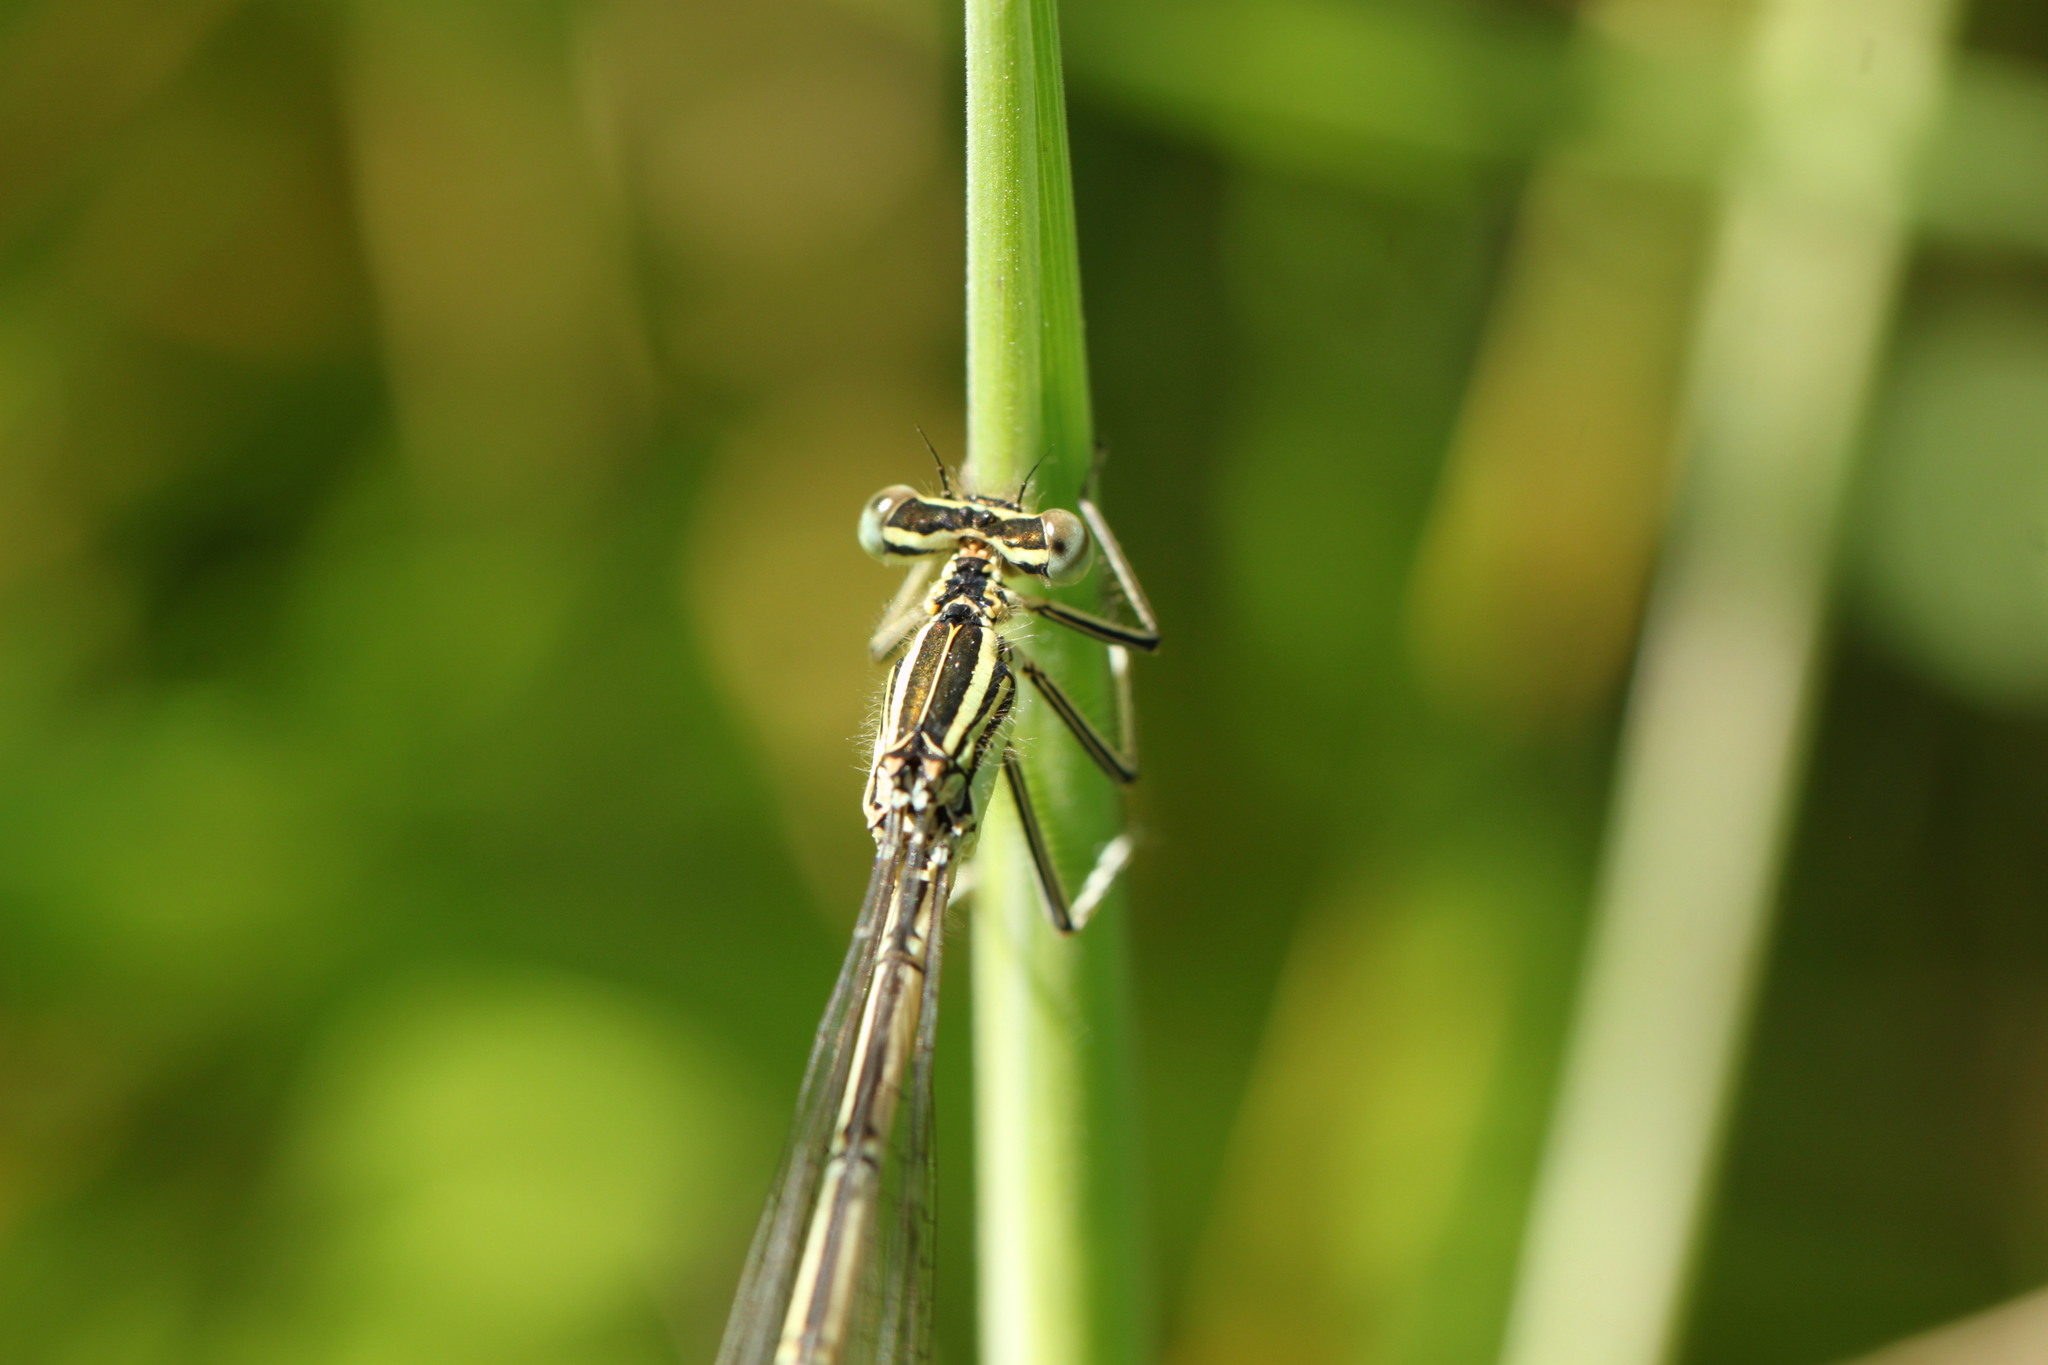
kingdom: Animalia
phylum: Arthropoda
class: Insecta
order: Odonata
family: Platycnemididae
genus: Platycnemis
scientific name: Platycnemis pennipes
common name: White-legged damselfly
